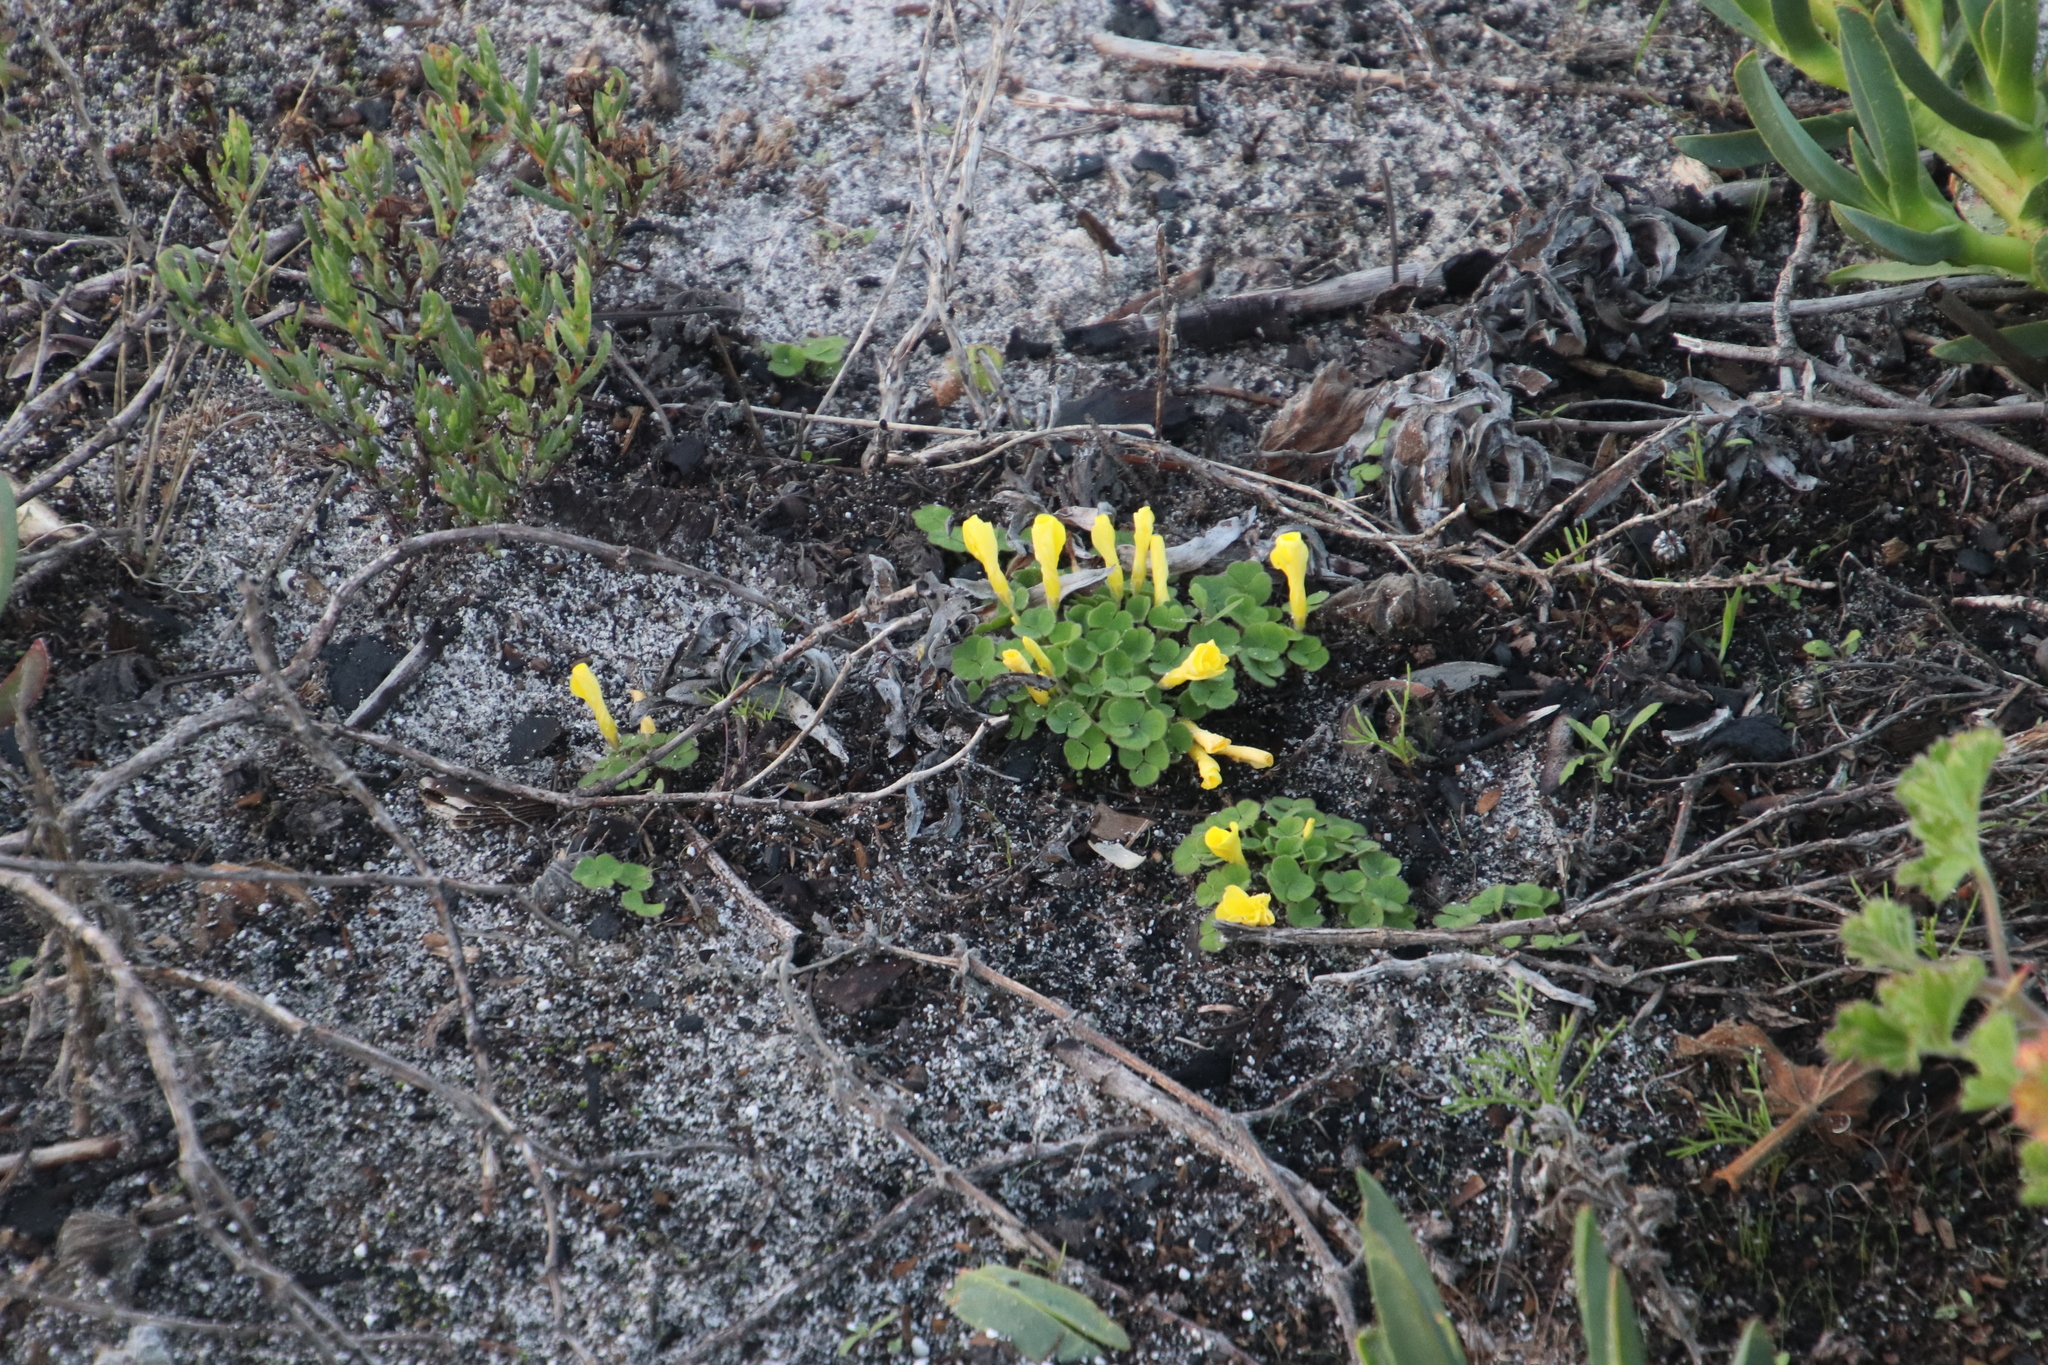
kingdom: Plantae
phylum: Tracheophyta
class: Magnoliopsida
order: Oxalidales
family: Oxalidaceae
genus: Oxalis
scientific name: Oxalis luteola
